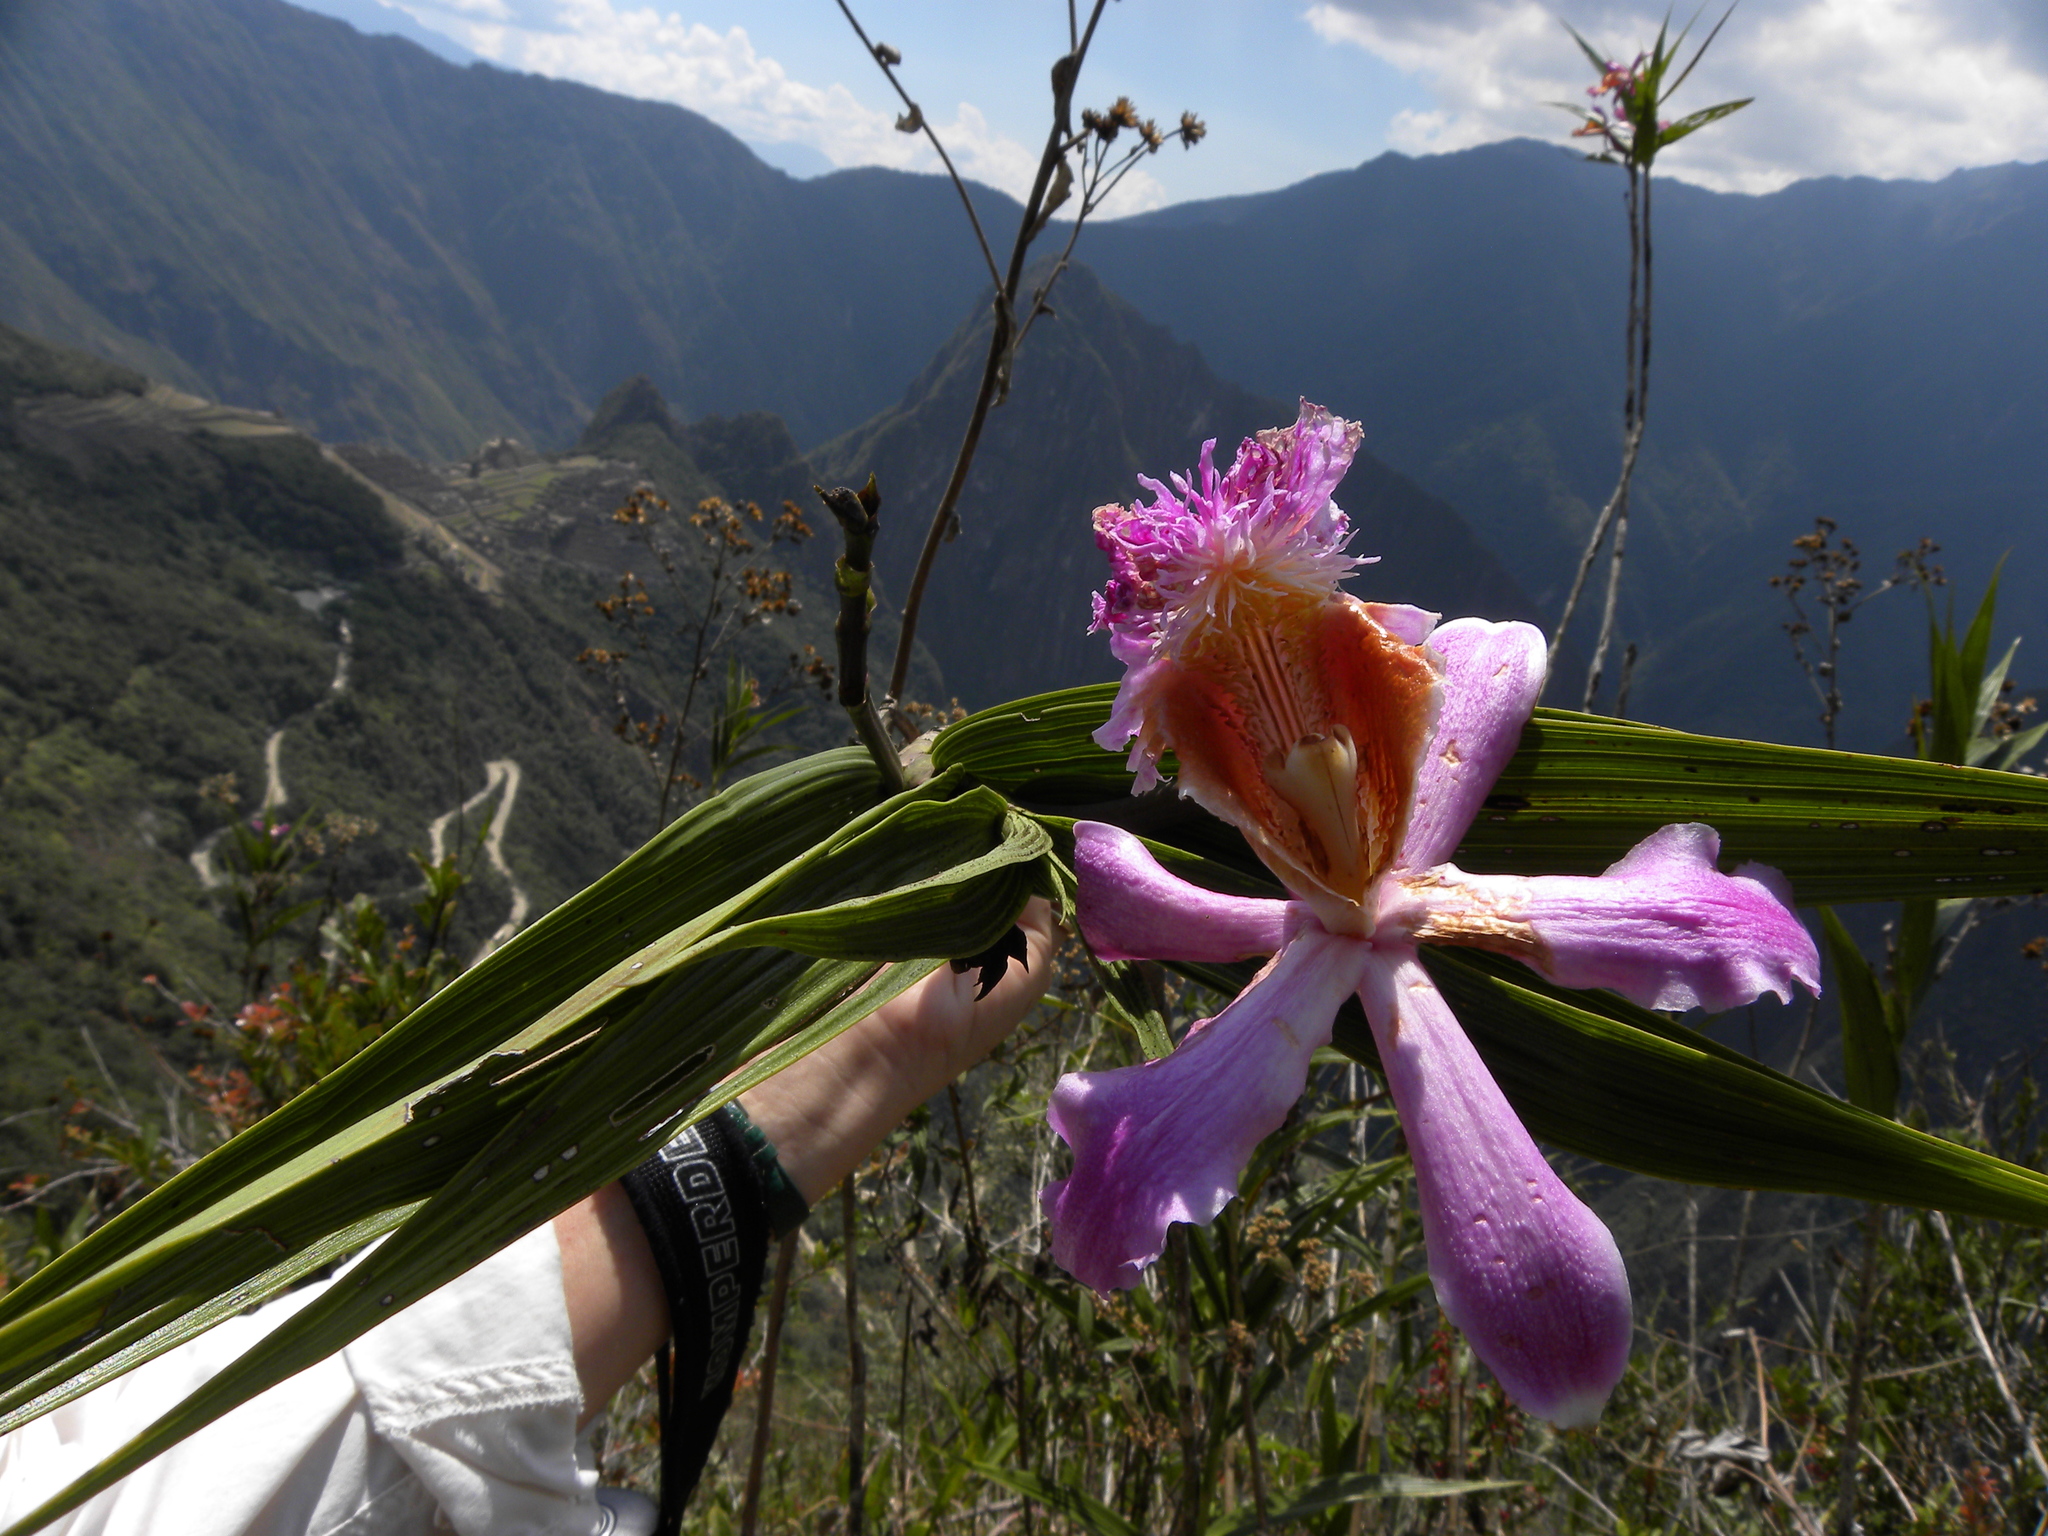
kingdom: Plantae
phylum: Tracheophyta
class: Liliopsida
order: Asparagales
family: Orchidaceae
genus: Sobralia
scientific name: Sobralia dichotoma
